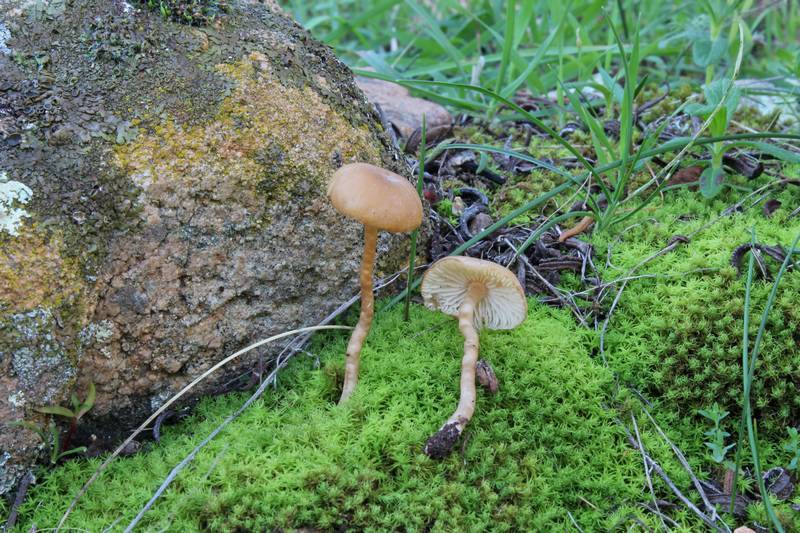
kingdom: Fungi
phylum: Basidiomycota
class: Agaricomycetes
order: Agaricales
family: Callistosporiaceae
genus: Pseudolaccaria
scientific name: Pseudolaccaria pachyphylla
